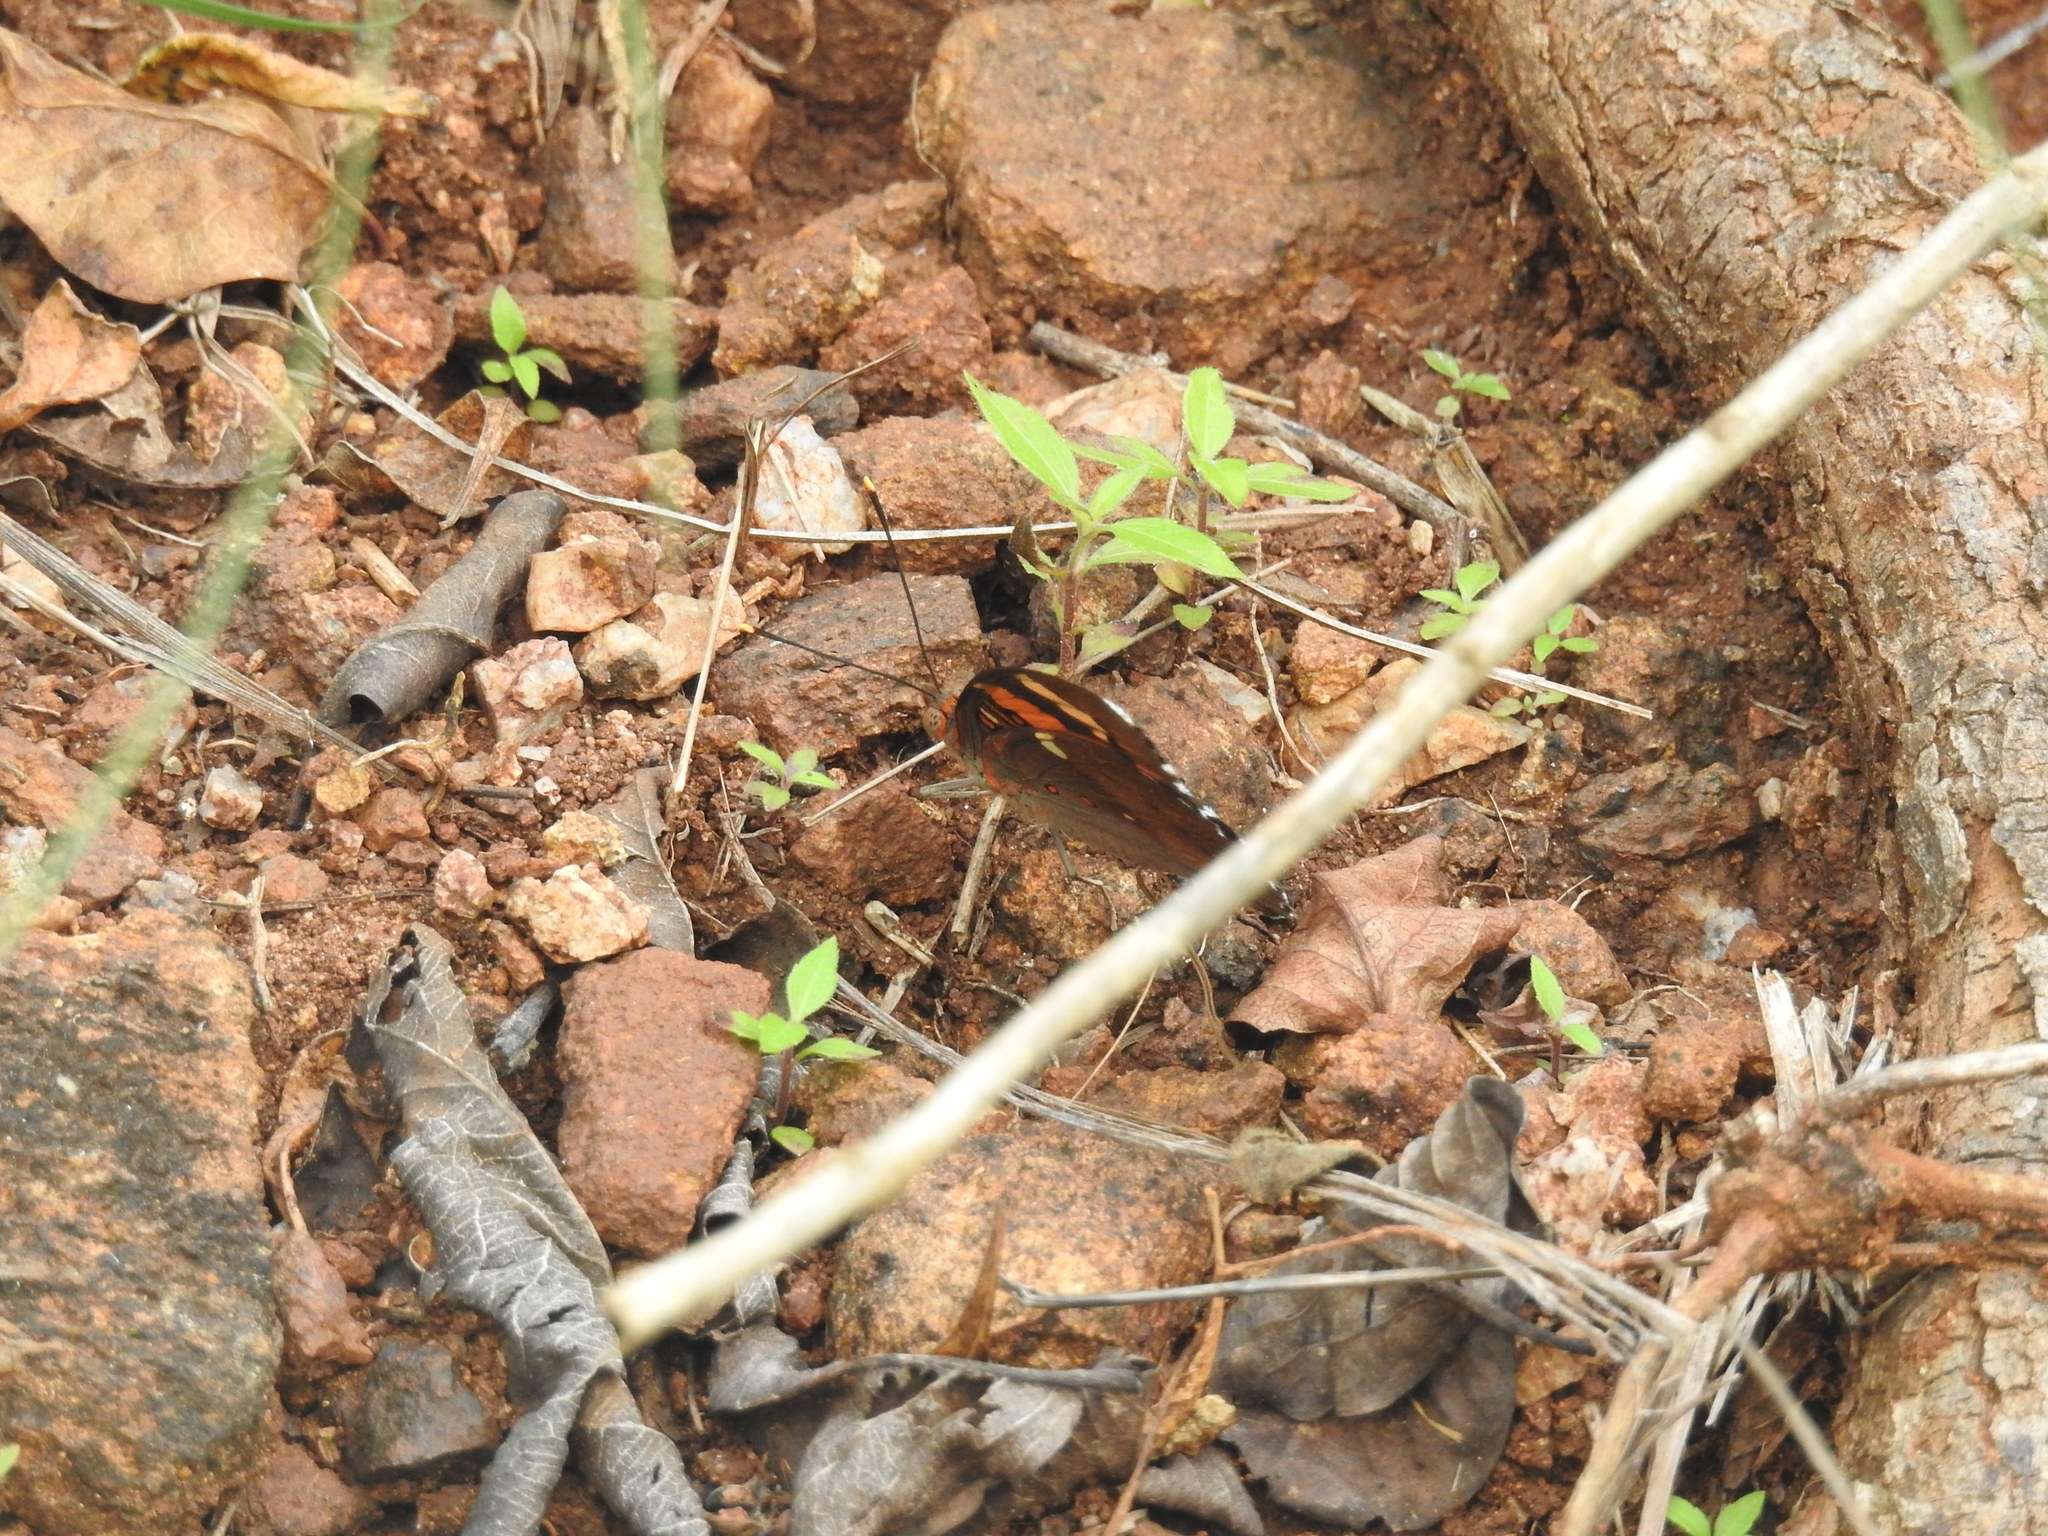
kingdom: Animalia
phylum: Arthropoda
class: Insecta
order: Lepidoptera
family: Nymphalidae
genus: Euthalia
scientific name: Euthalia nais
